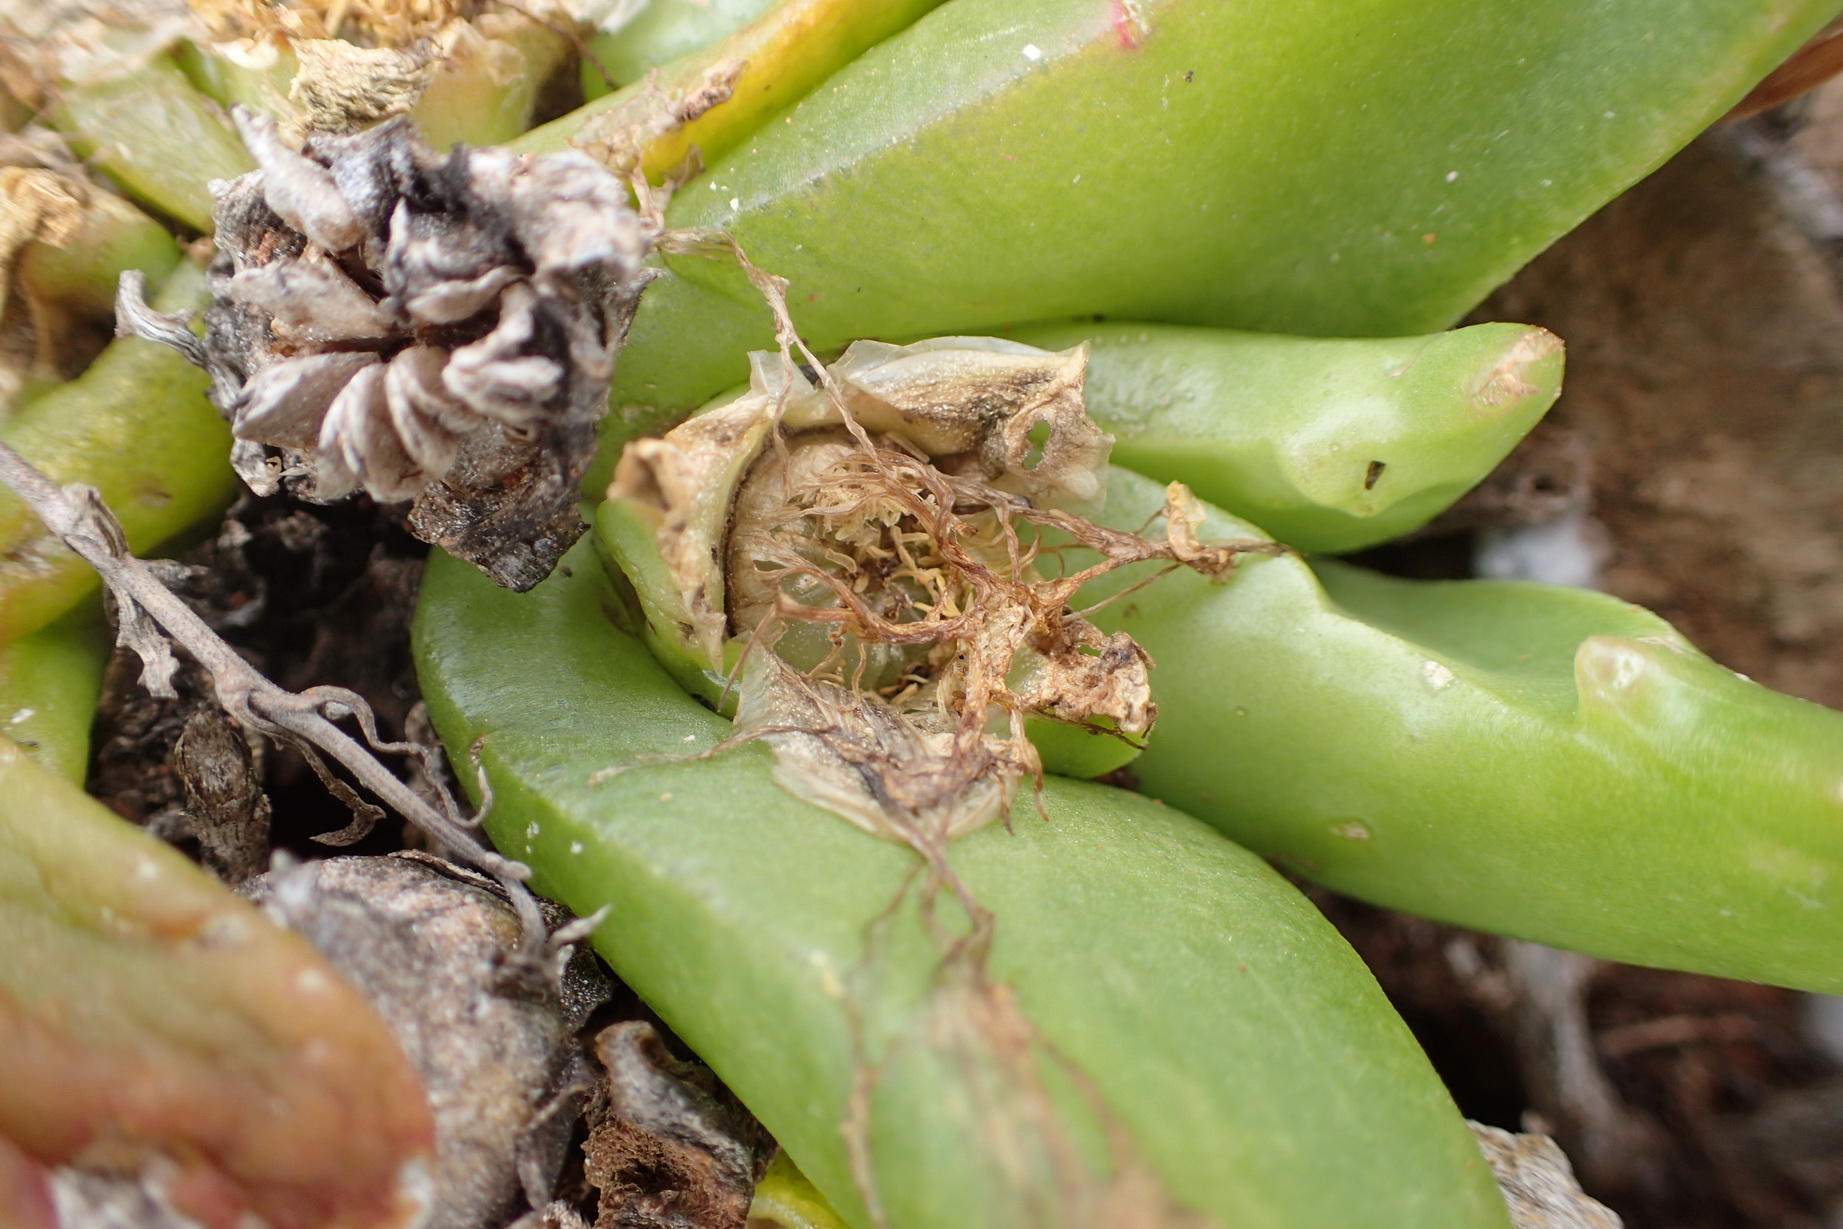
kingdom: Plantae
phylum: Tracheophyta
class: Magnoliopsida
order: Caryophyllales
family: Aizoaceae
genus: Glottiphyllum
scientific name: Glottiphyllum depressum
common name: Fig-marigold
